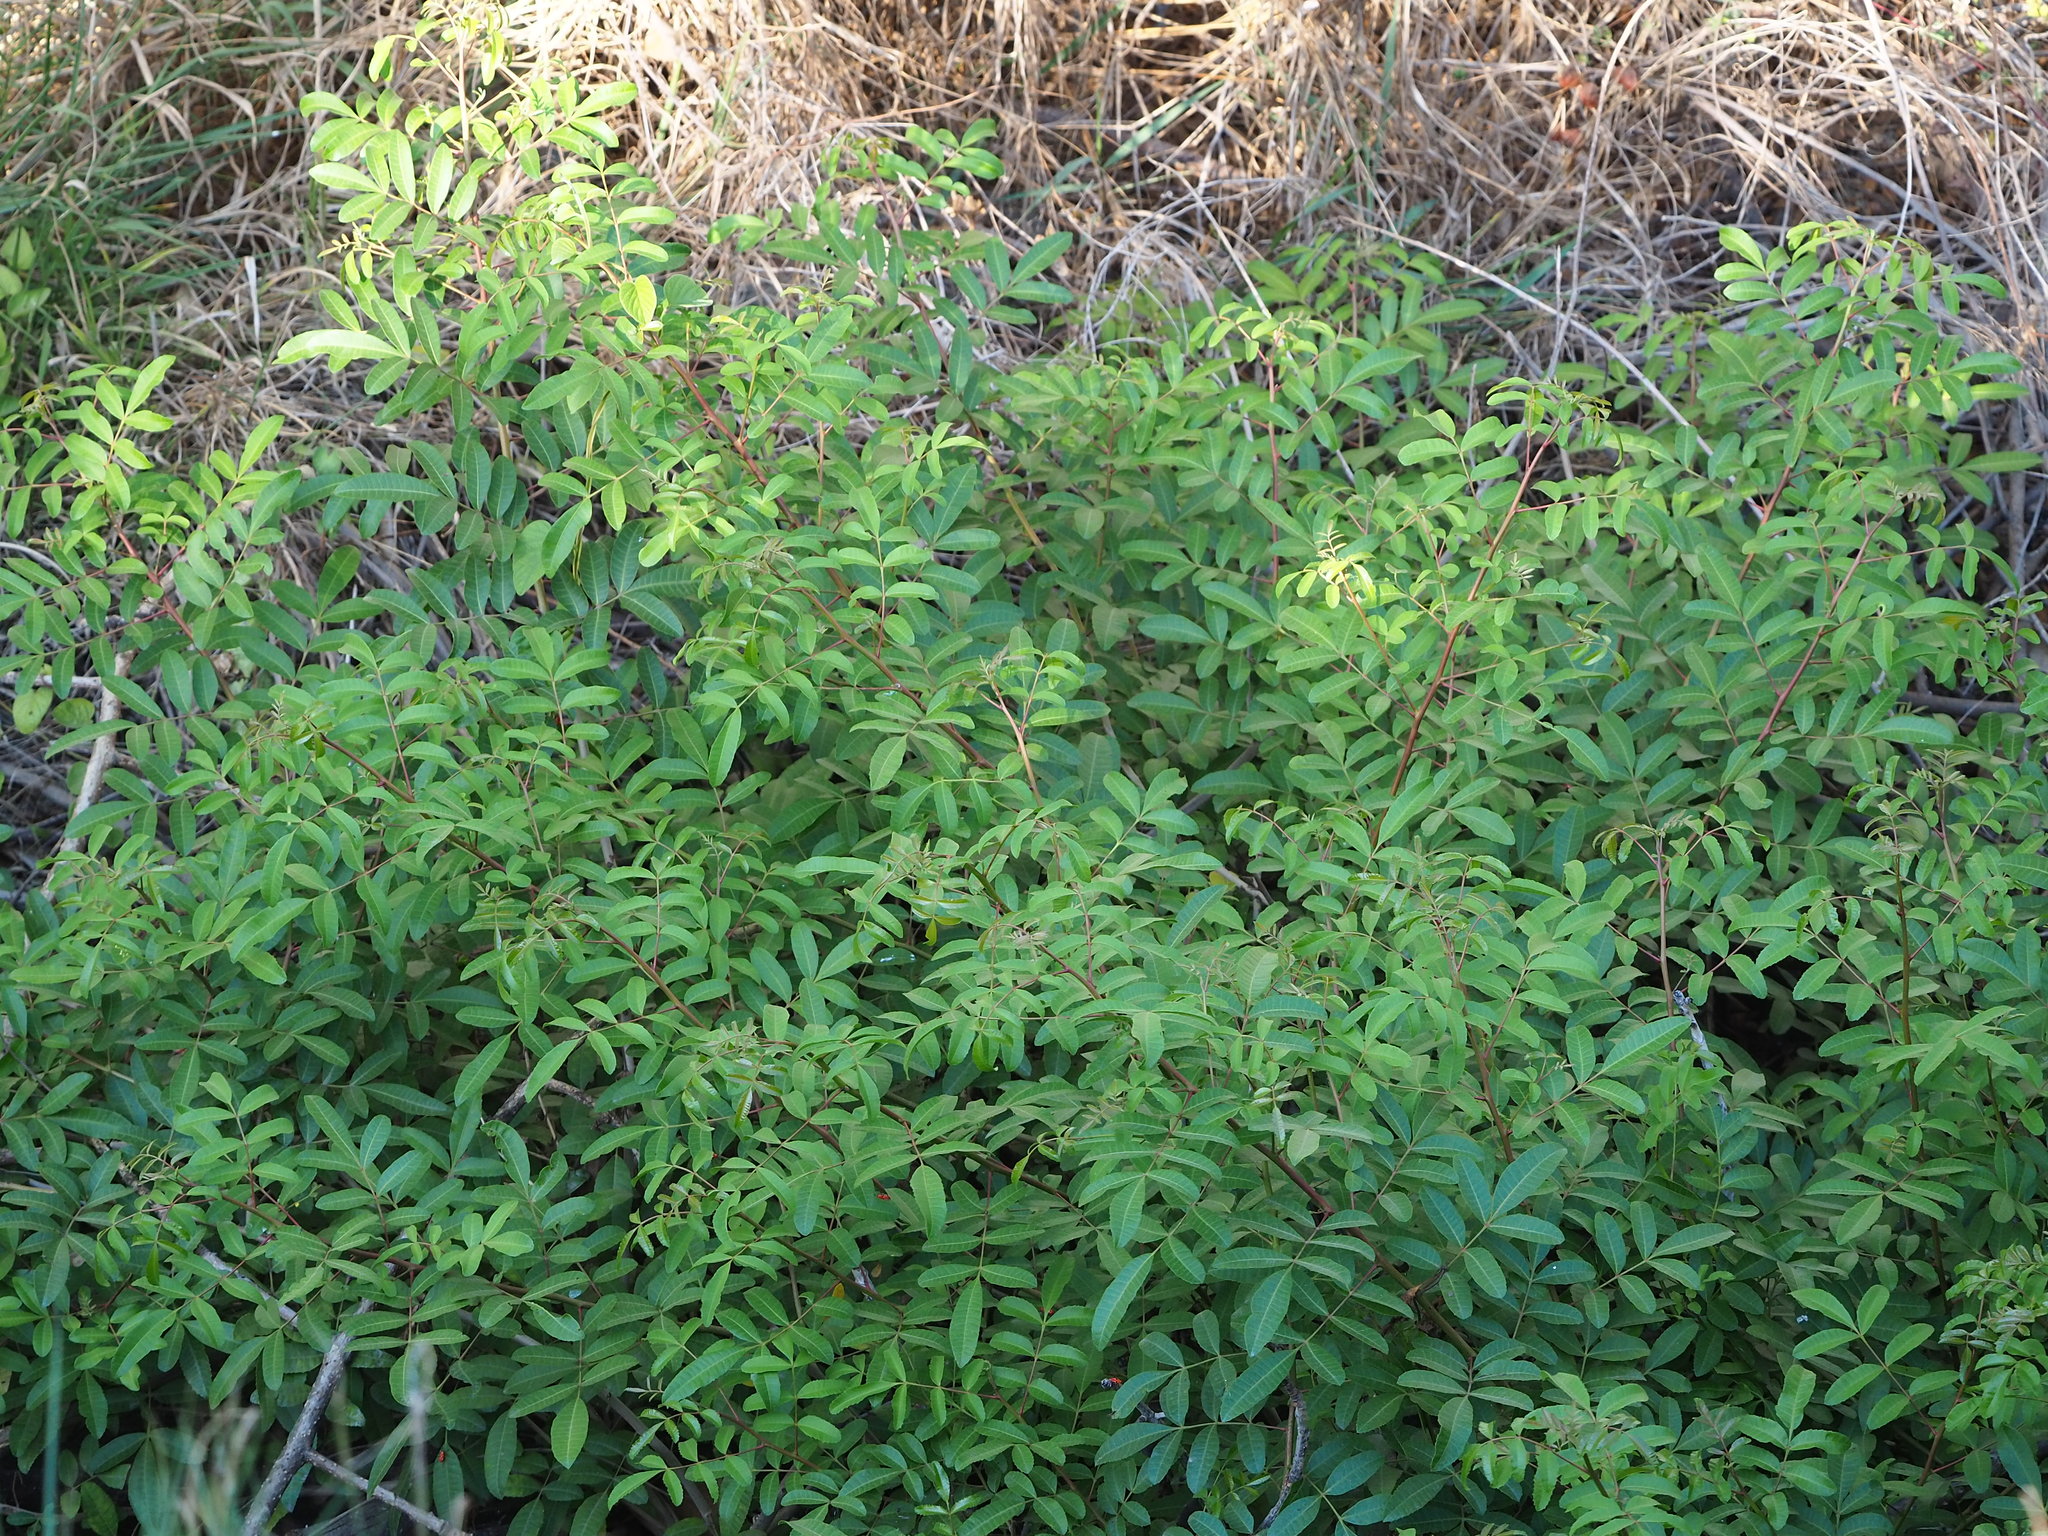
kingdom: Plantae
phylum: Tracheophyta
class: Magnoliopsida
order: Sapindales
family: Anacardiaceae
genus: Schinus
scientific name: Schinus terebinthifolia
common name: Brazilian peppertree
